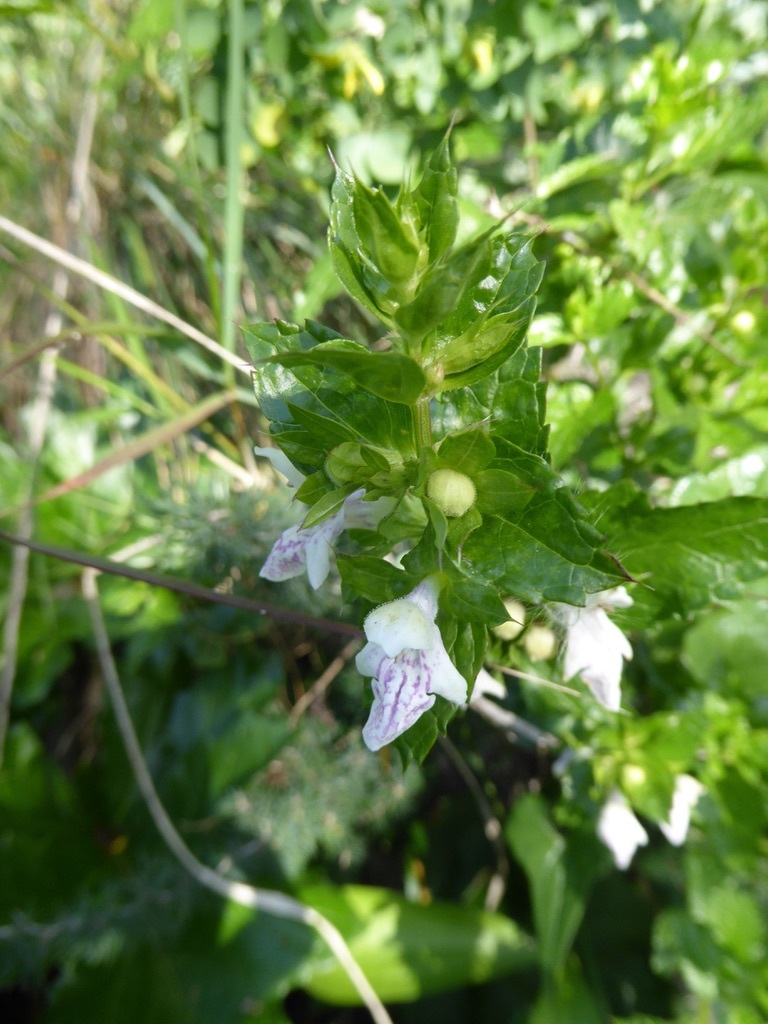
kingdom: Plantae
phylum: Tracheophyta
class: Magnoliopsida
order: Lamiales
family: Lamiaceae
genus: Prasium
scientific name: Prasium majus
